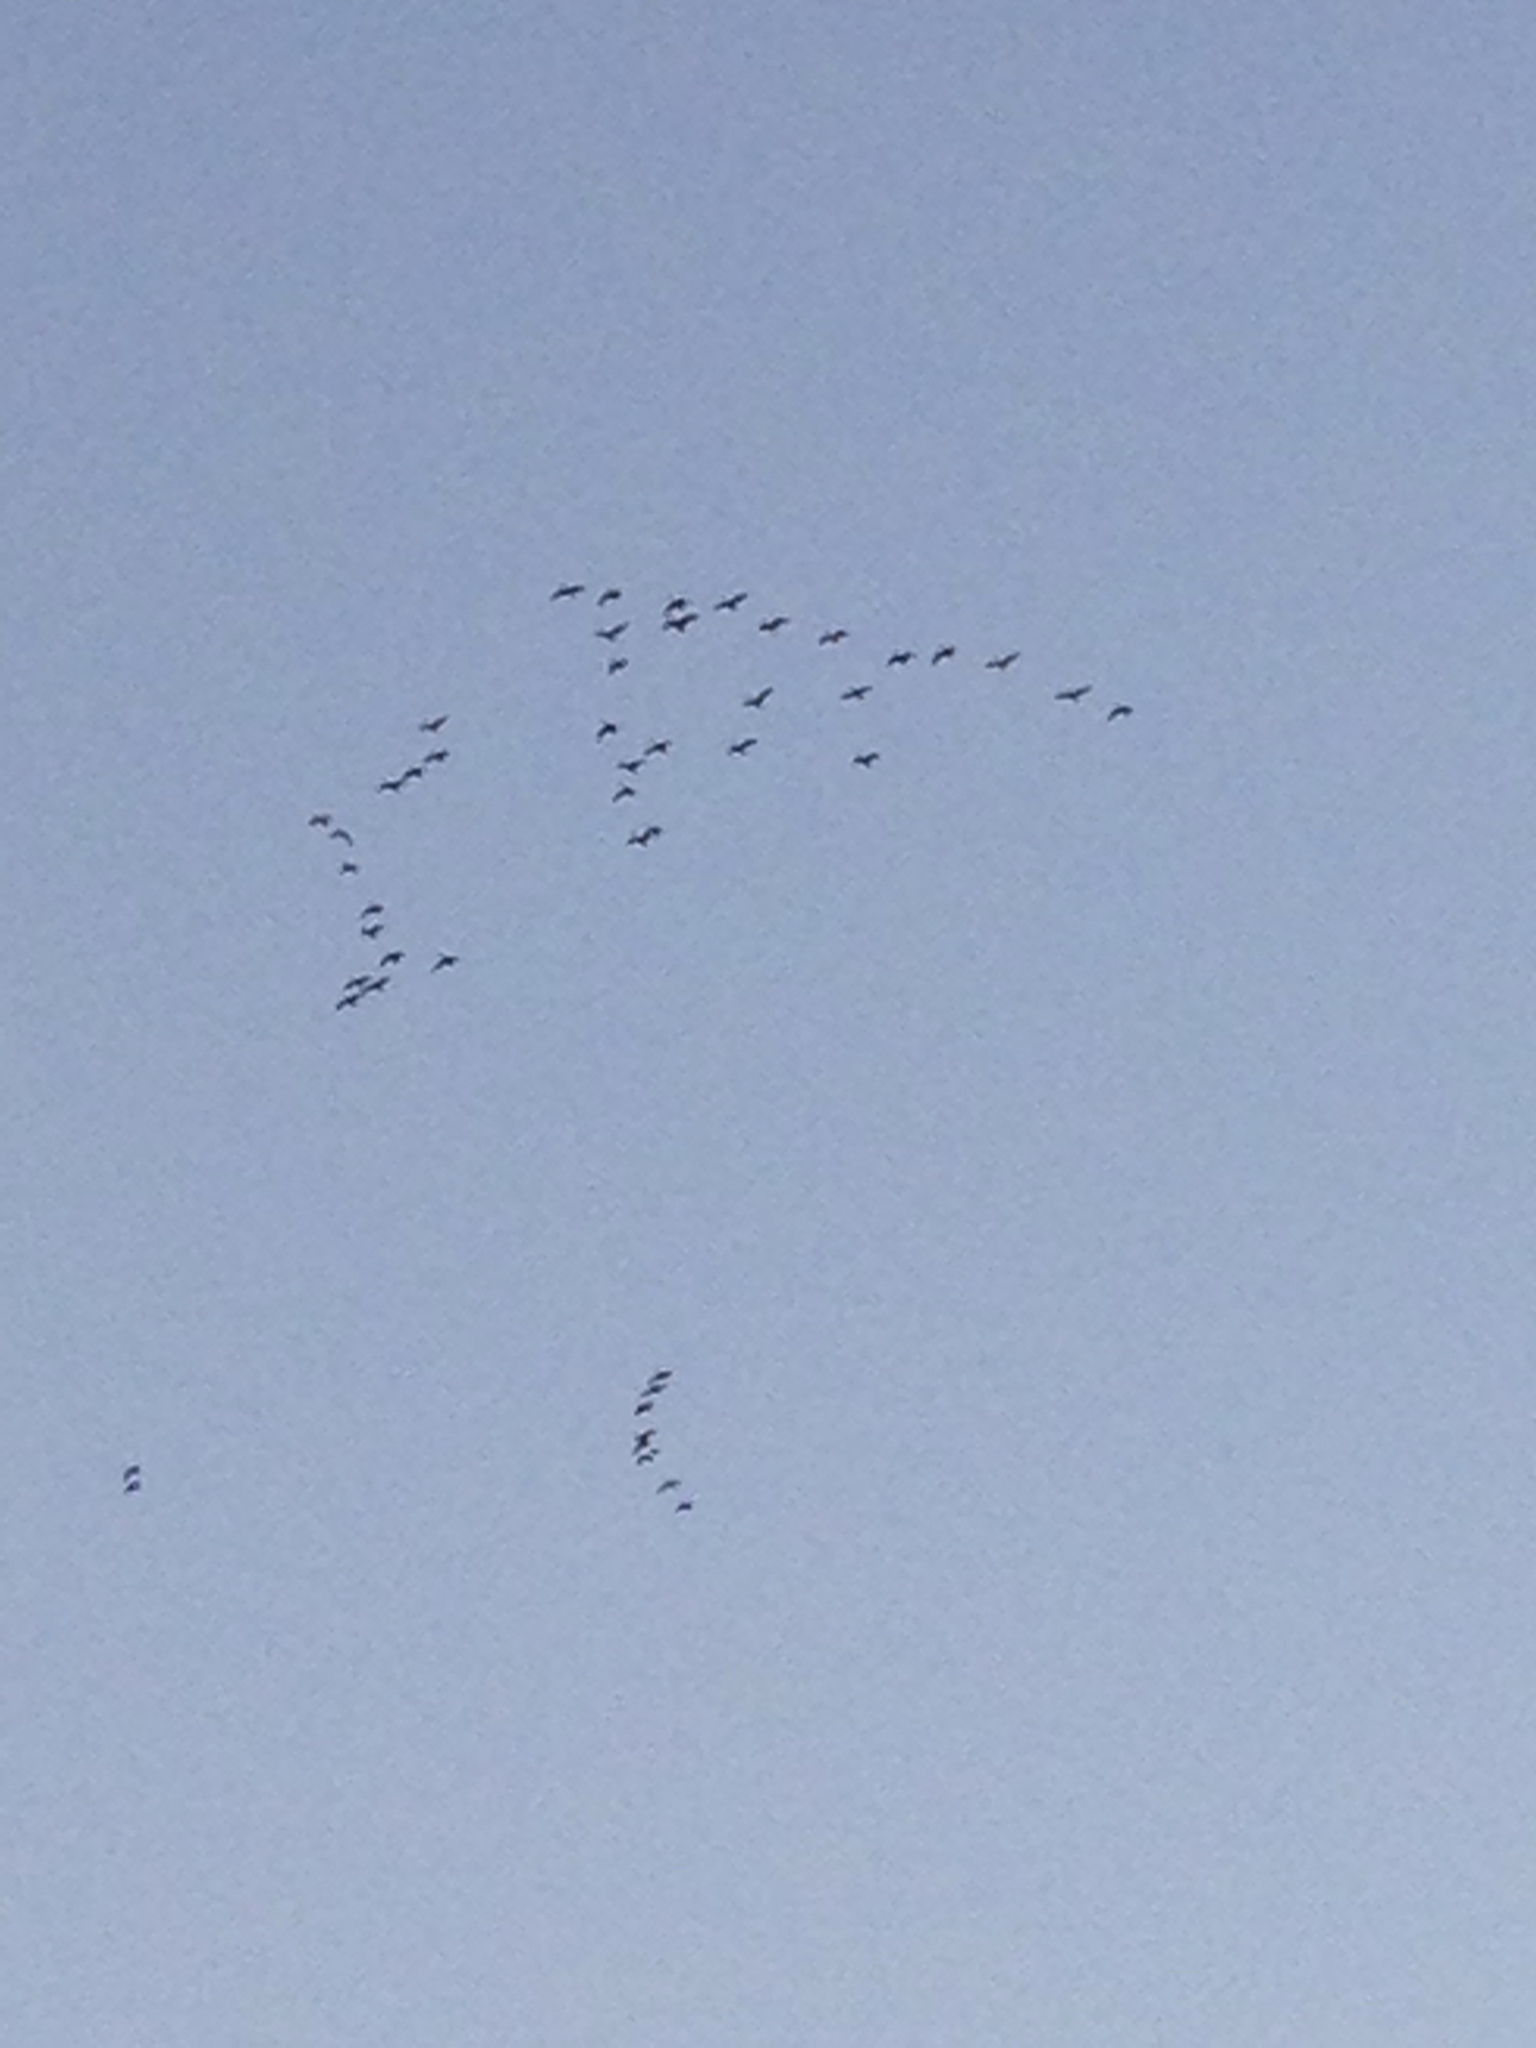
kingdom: Animalia
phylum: Chordata
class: Aves
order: Anseriformes
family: Anatidae
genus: Branta
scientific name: Branta canadensis
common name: Canada goose
